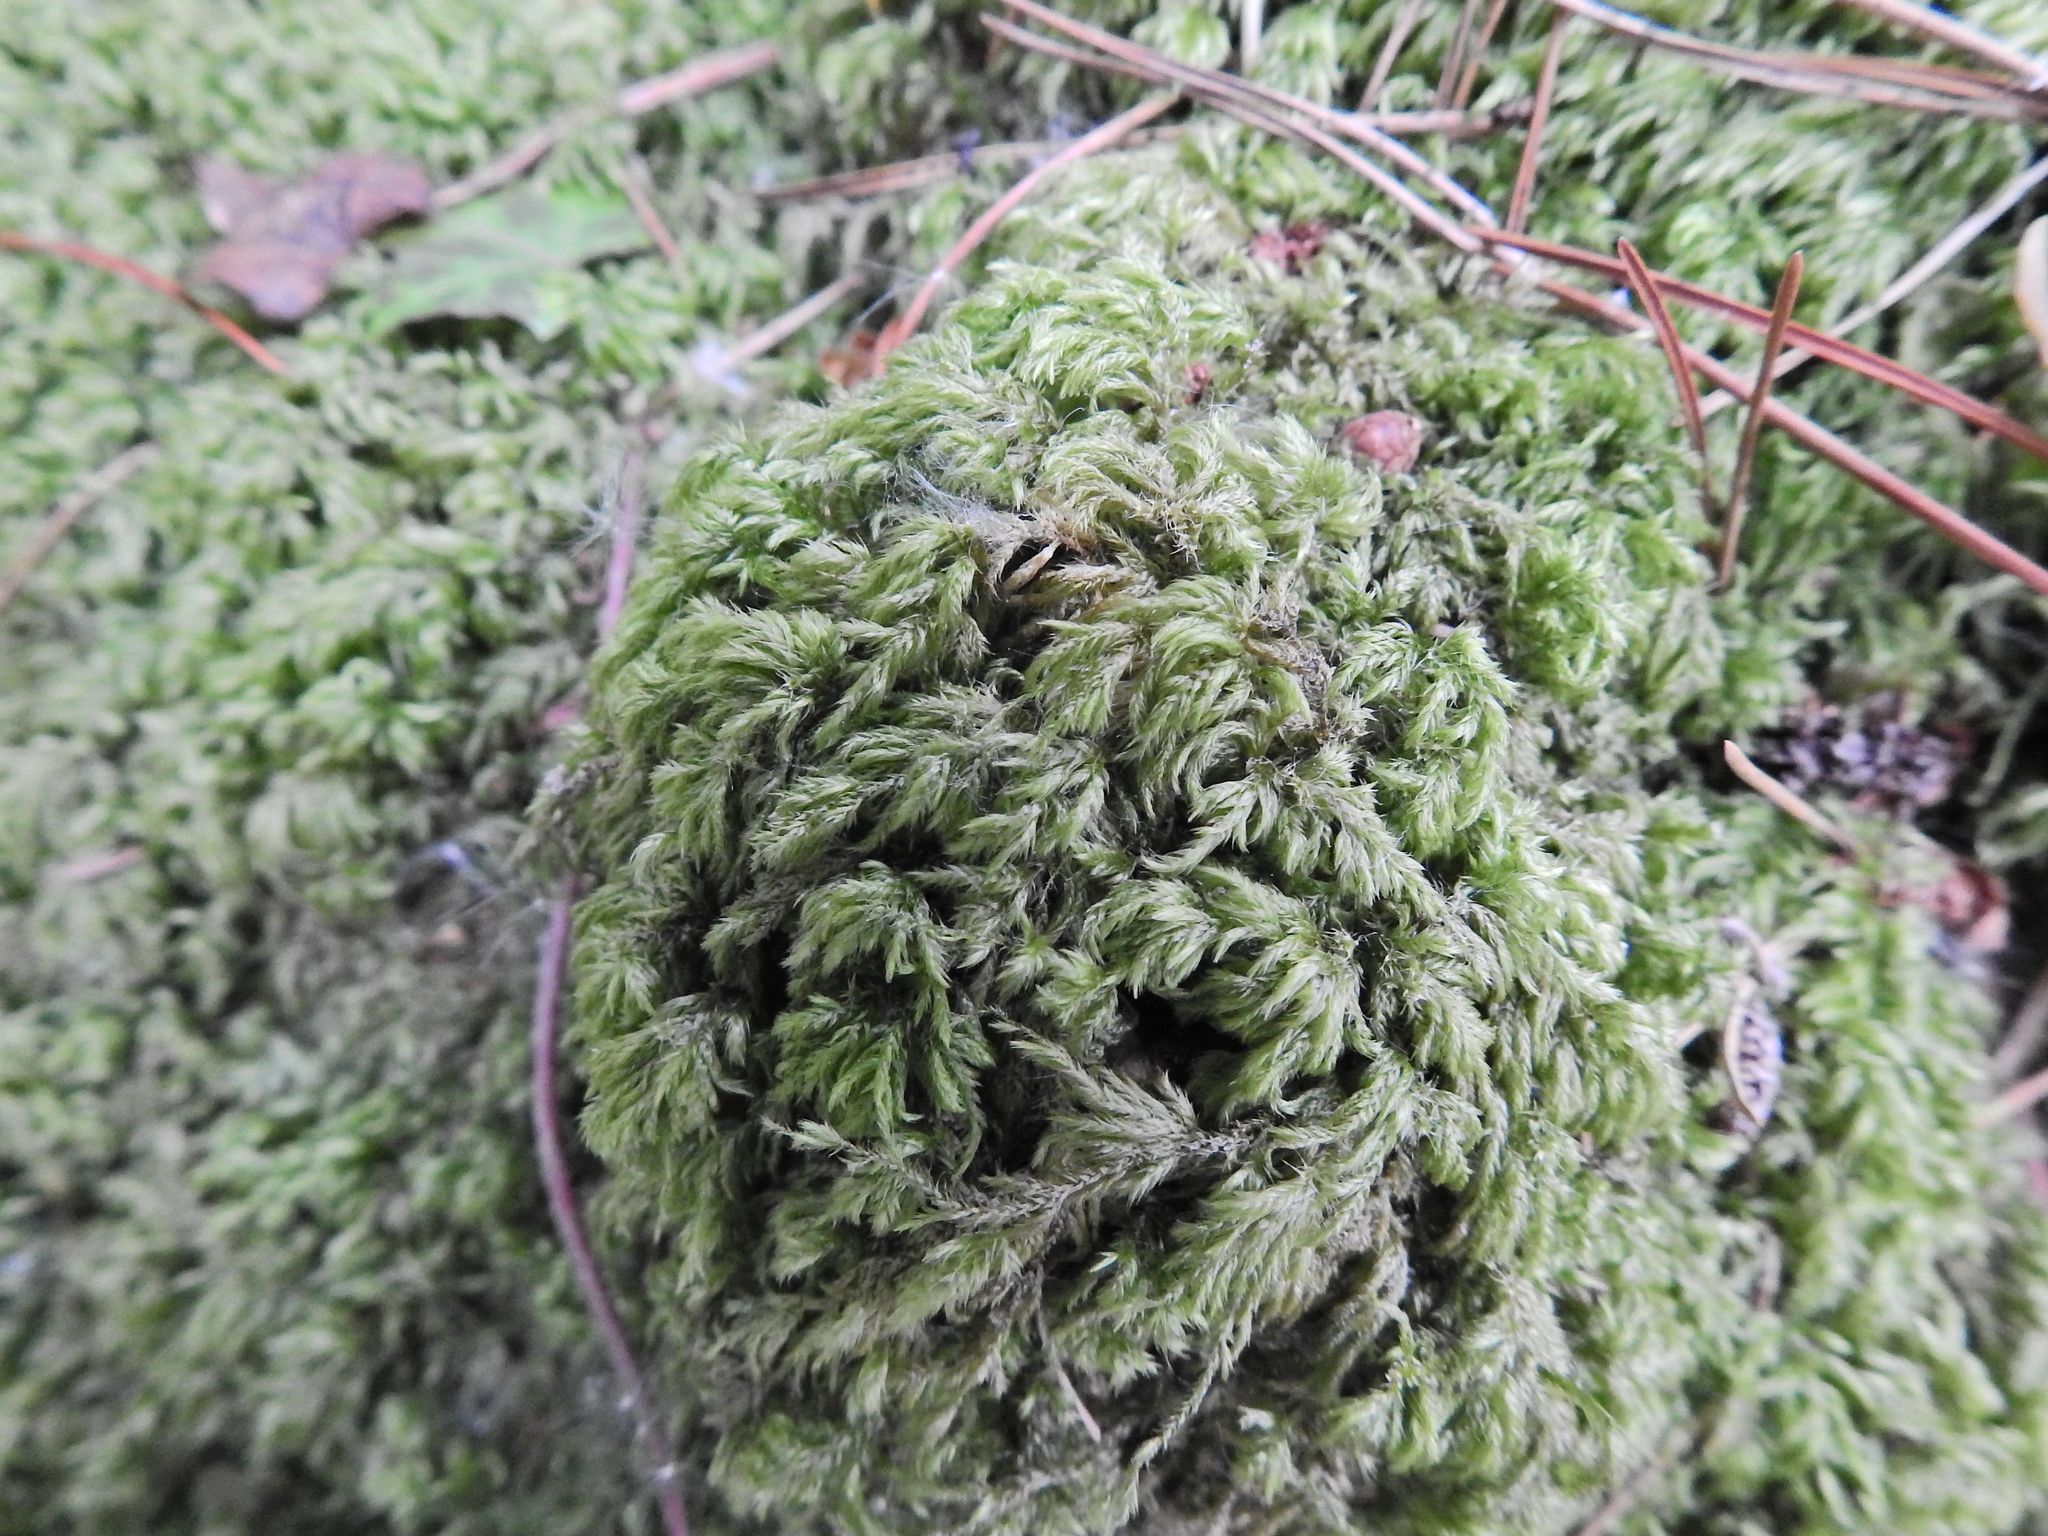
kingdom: Plantae
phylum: Bryophyta
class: Bryopsida
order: Hypnales
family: Lembophyllaceae
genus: Pseudisothecium
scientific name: Pseudisothecium myosuroides
